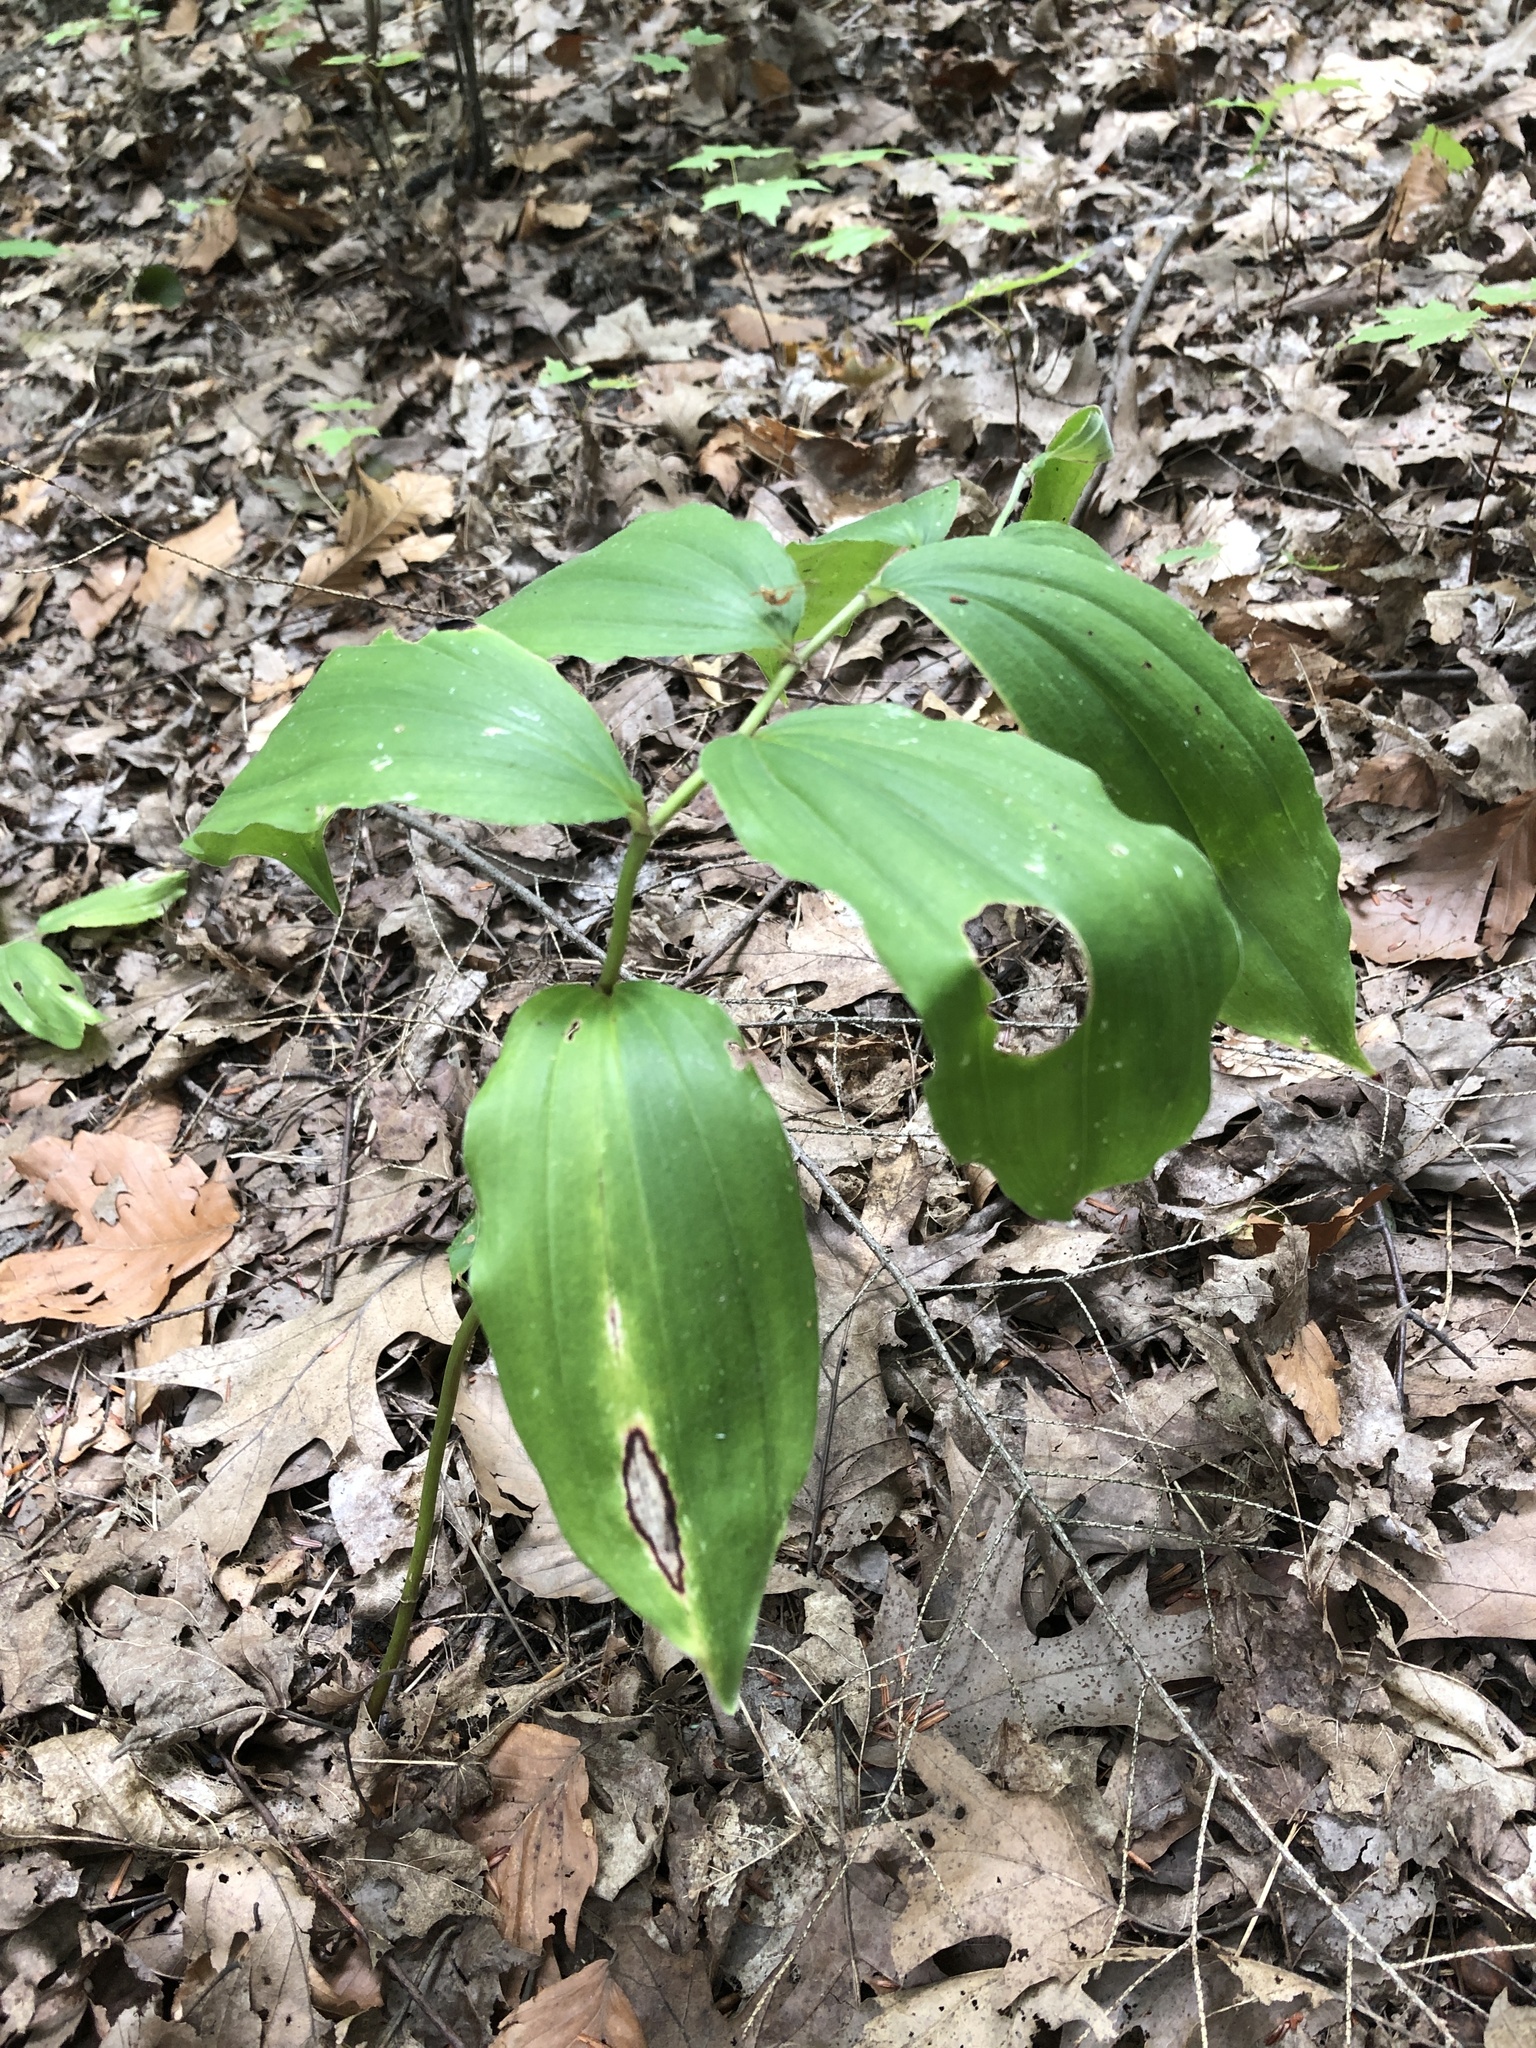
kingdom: Plantae
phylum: Tracheophyta
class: Liliopsida
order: Asparagales
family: Asparagaceae
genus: Maianthemum
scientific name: Maianthemum racemosum
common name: False spikenard
